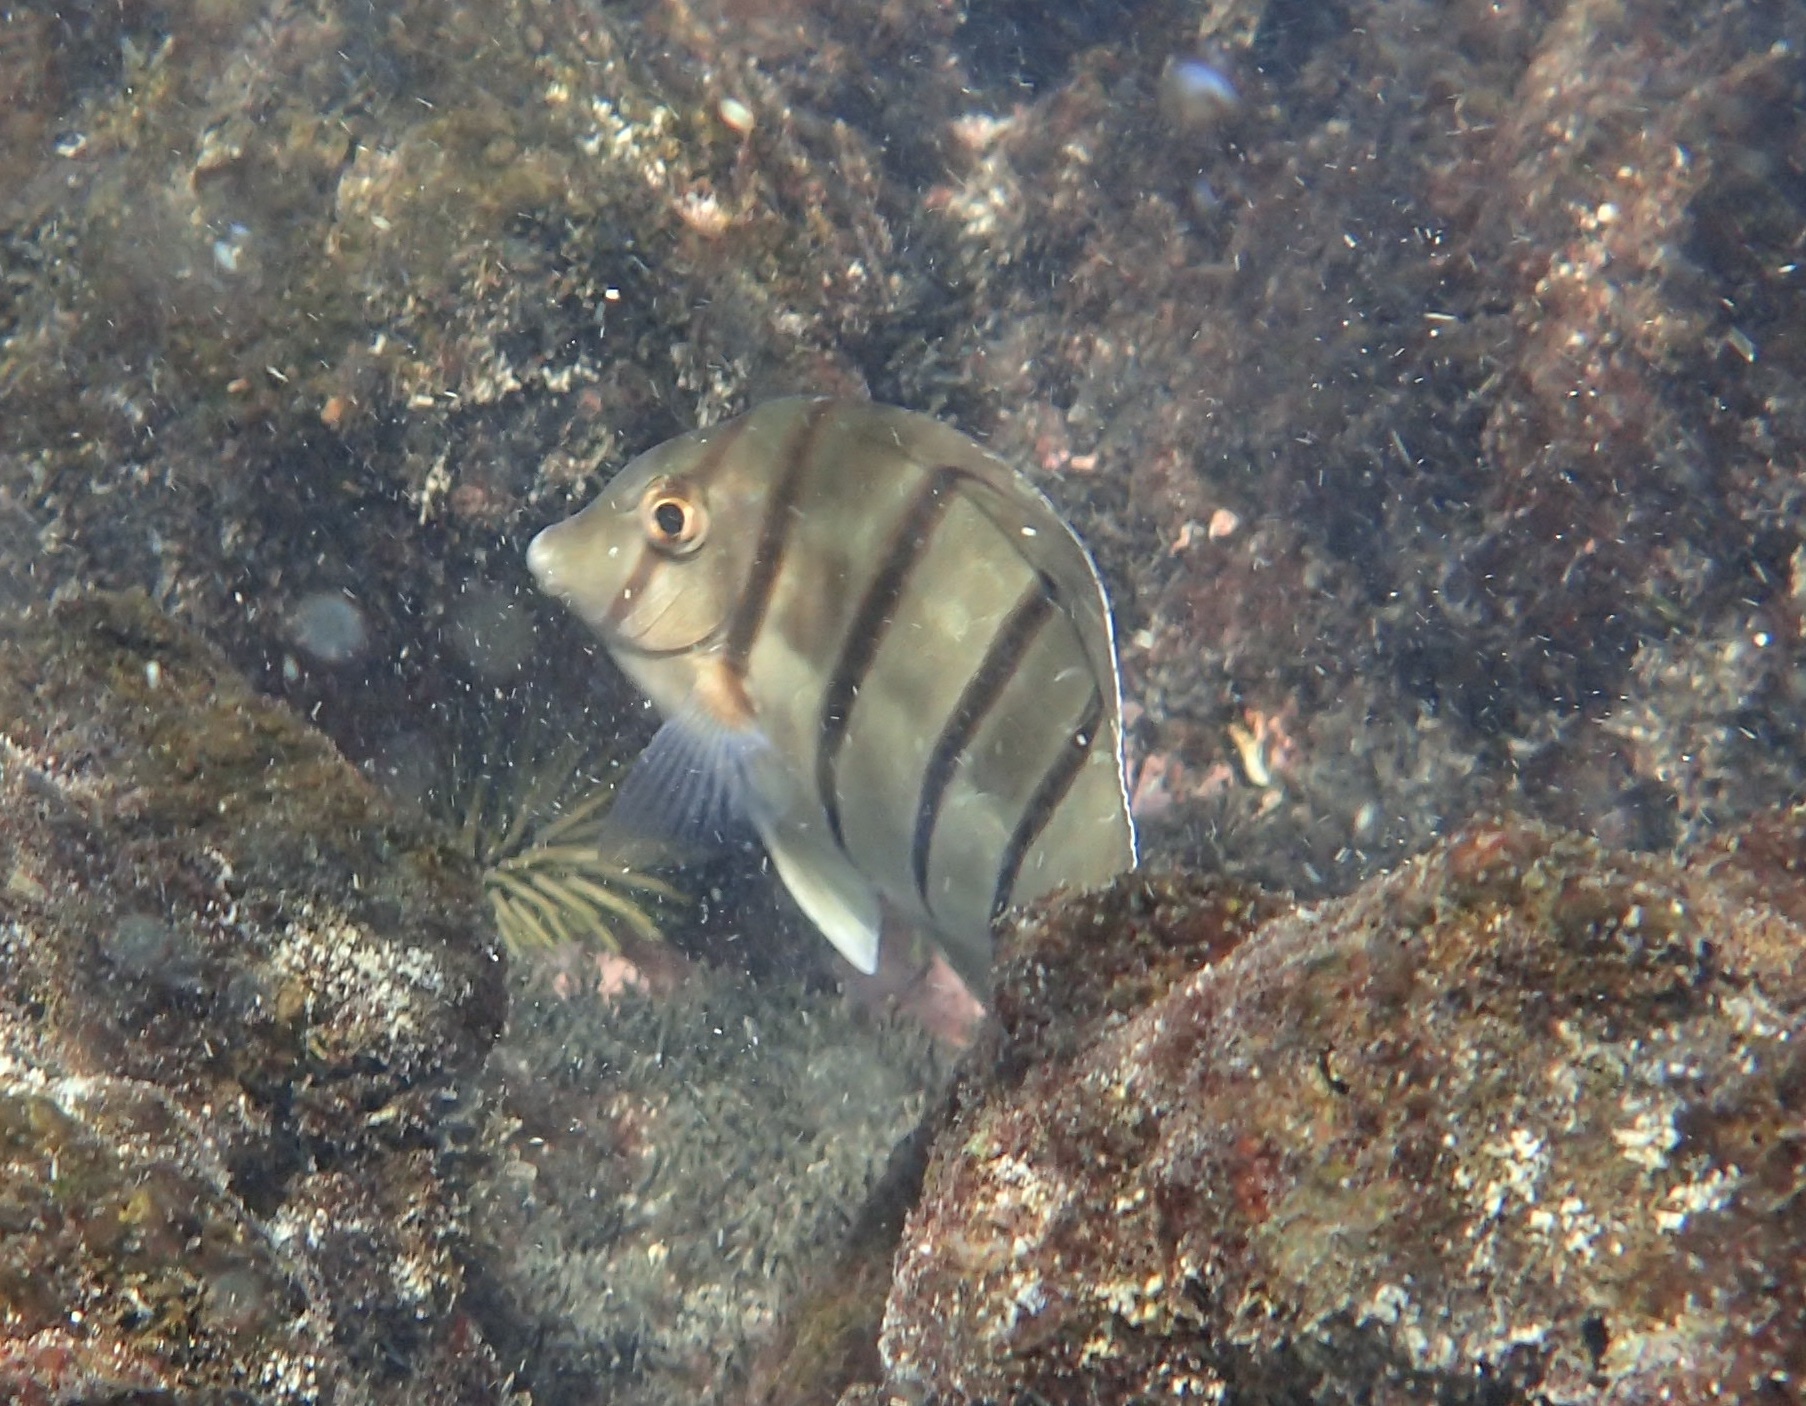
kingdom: Animalia
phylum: Chordata
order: Perciformes
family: Acanthuridae
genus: Acanthurus
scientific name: Acanthurus triostegus
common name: Convict surgeonfish
